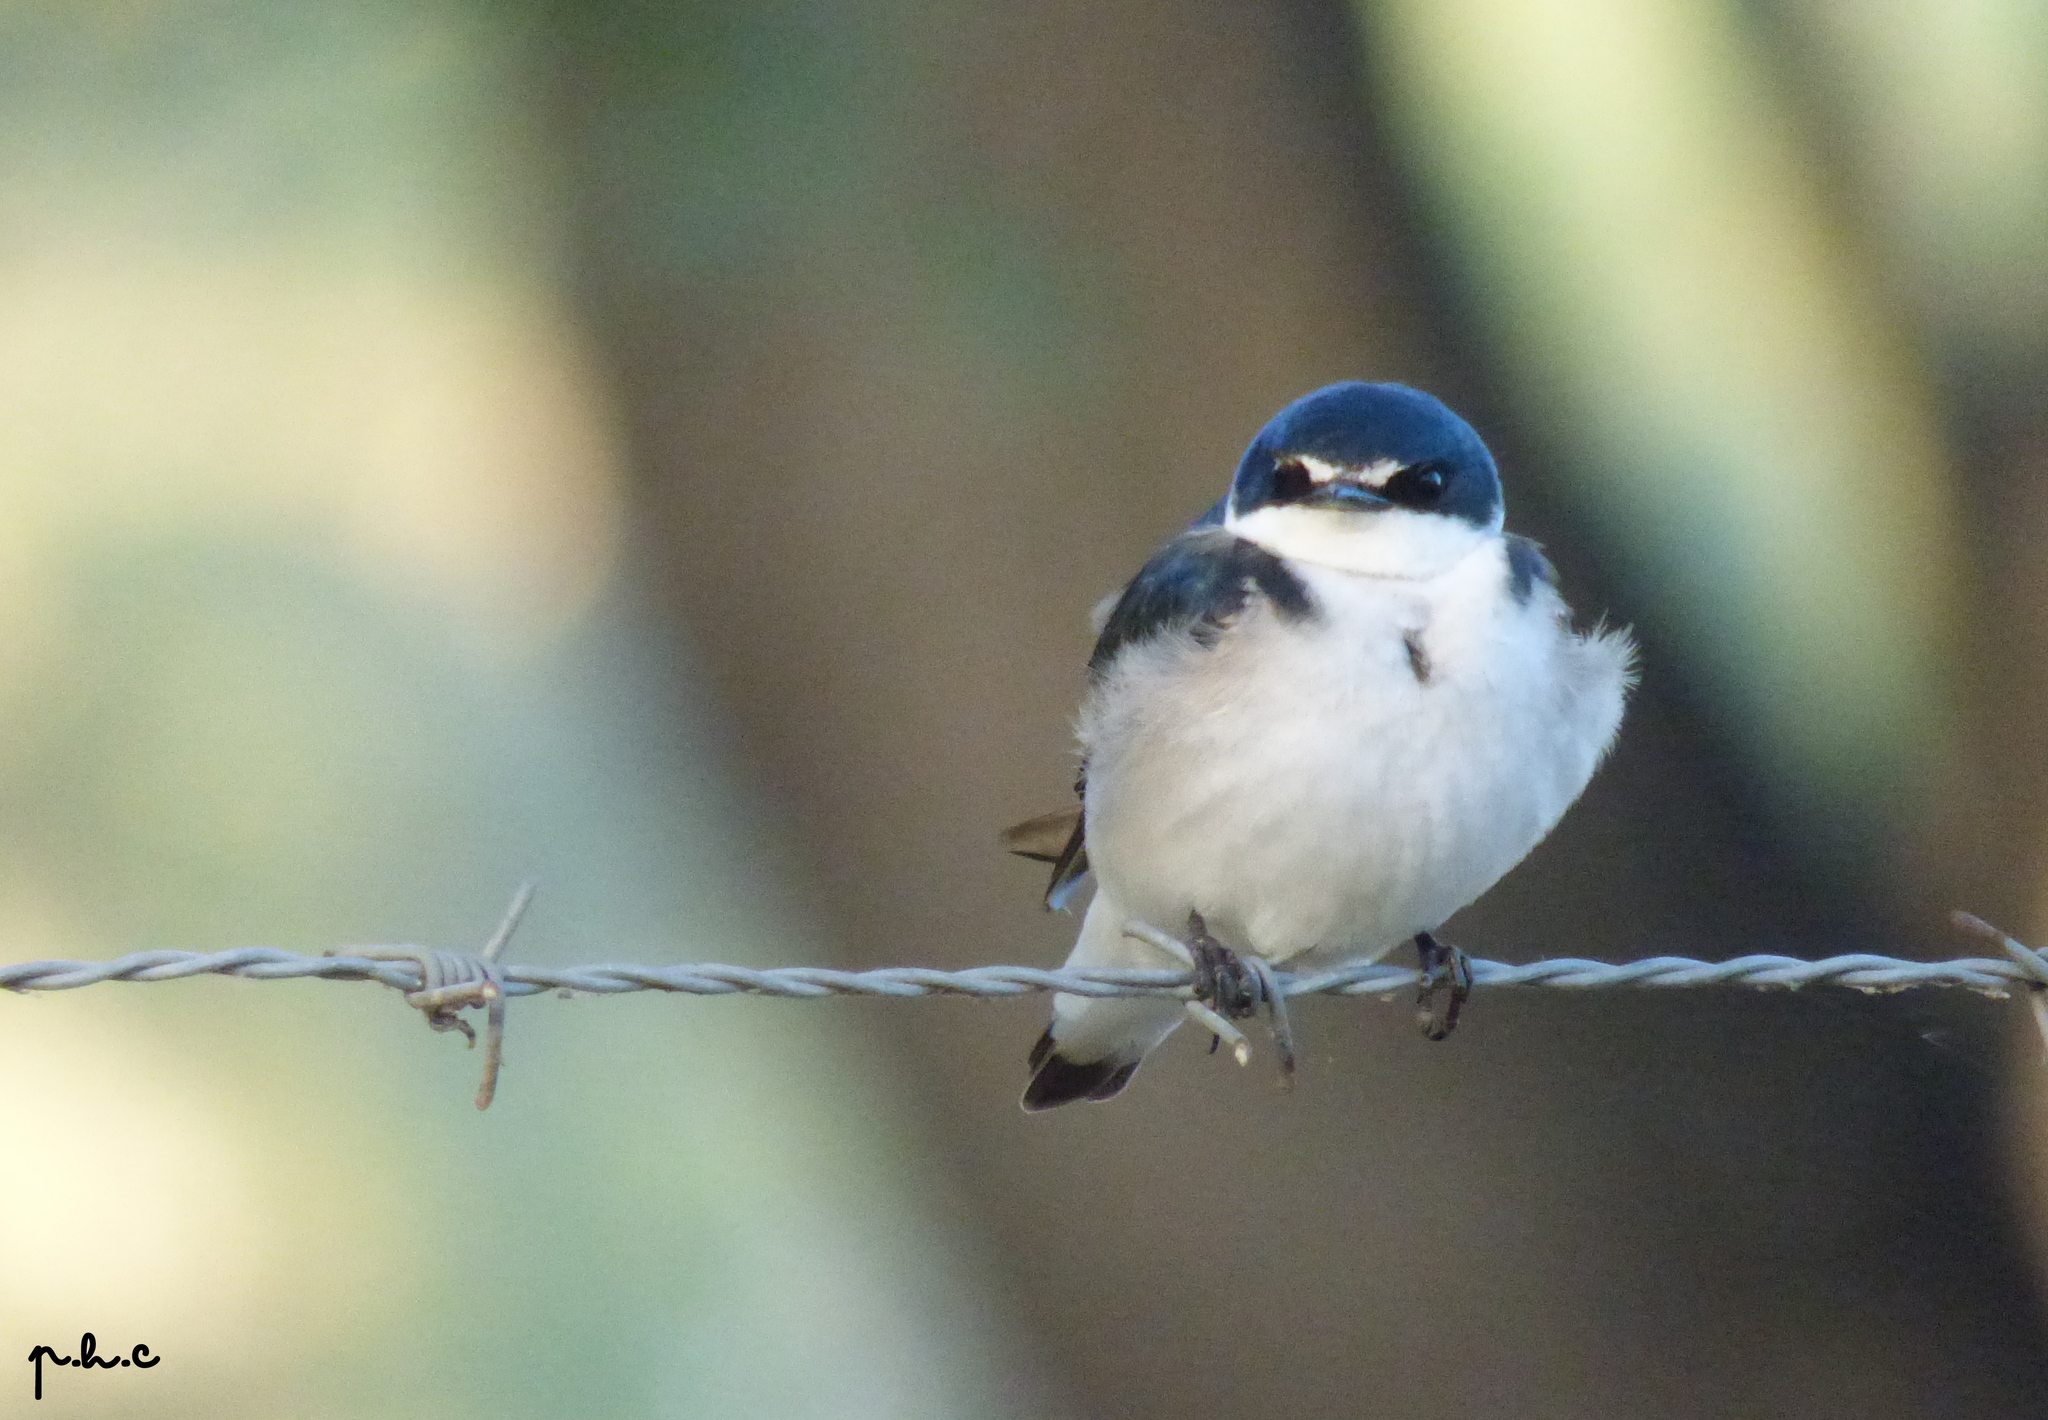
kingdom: Animalia
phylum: Chordata
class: Aves
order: Passeriformes
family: Hirundinidae
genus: Tachycineta
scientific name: Tachycineta leucorrhoa
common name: White-rumped swallow
